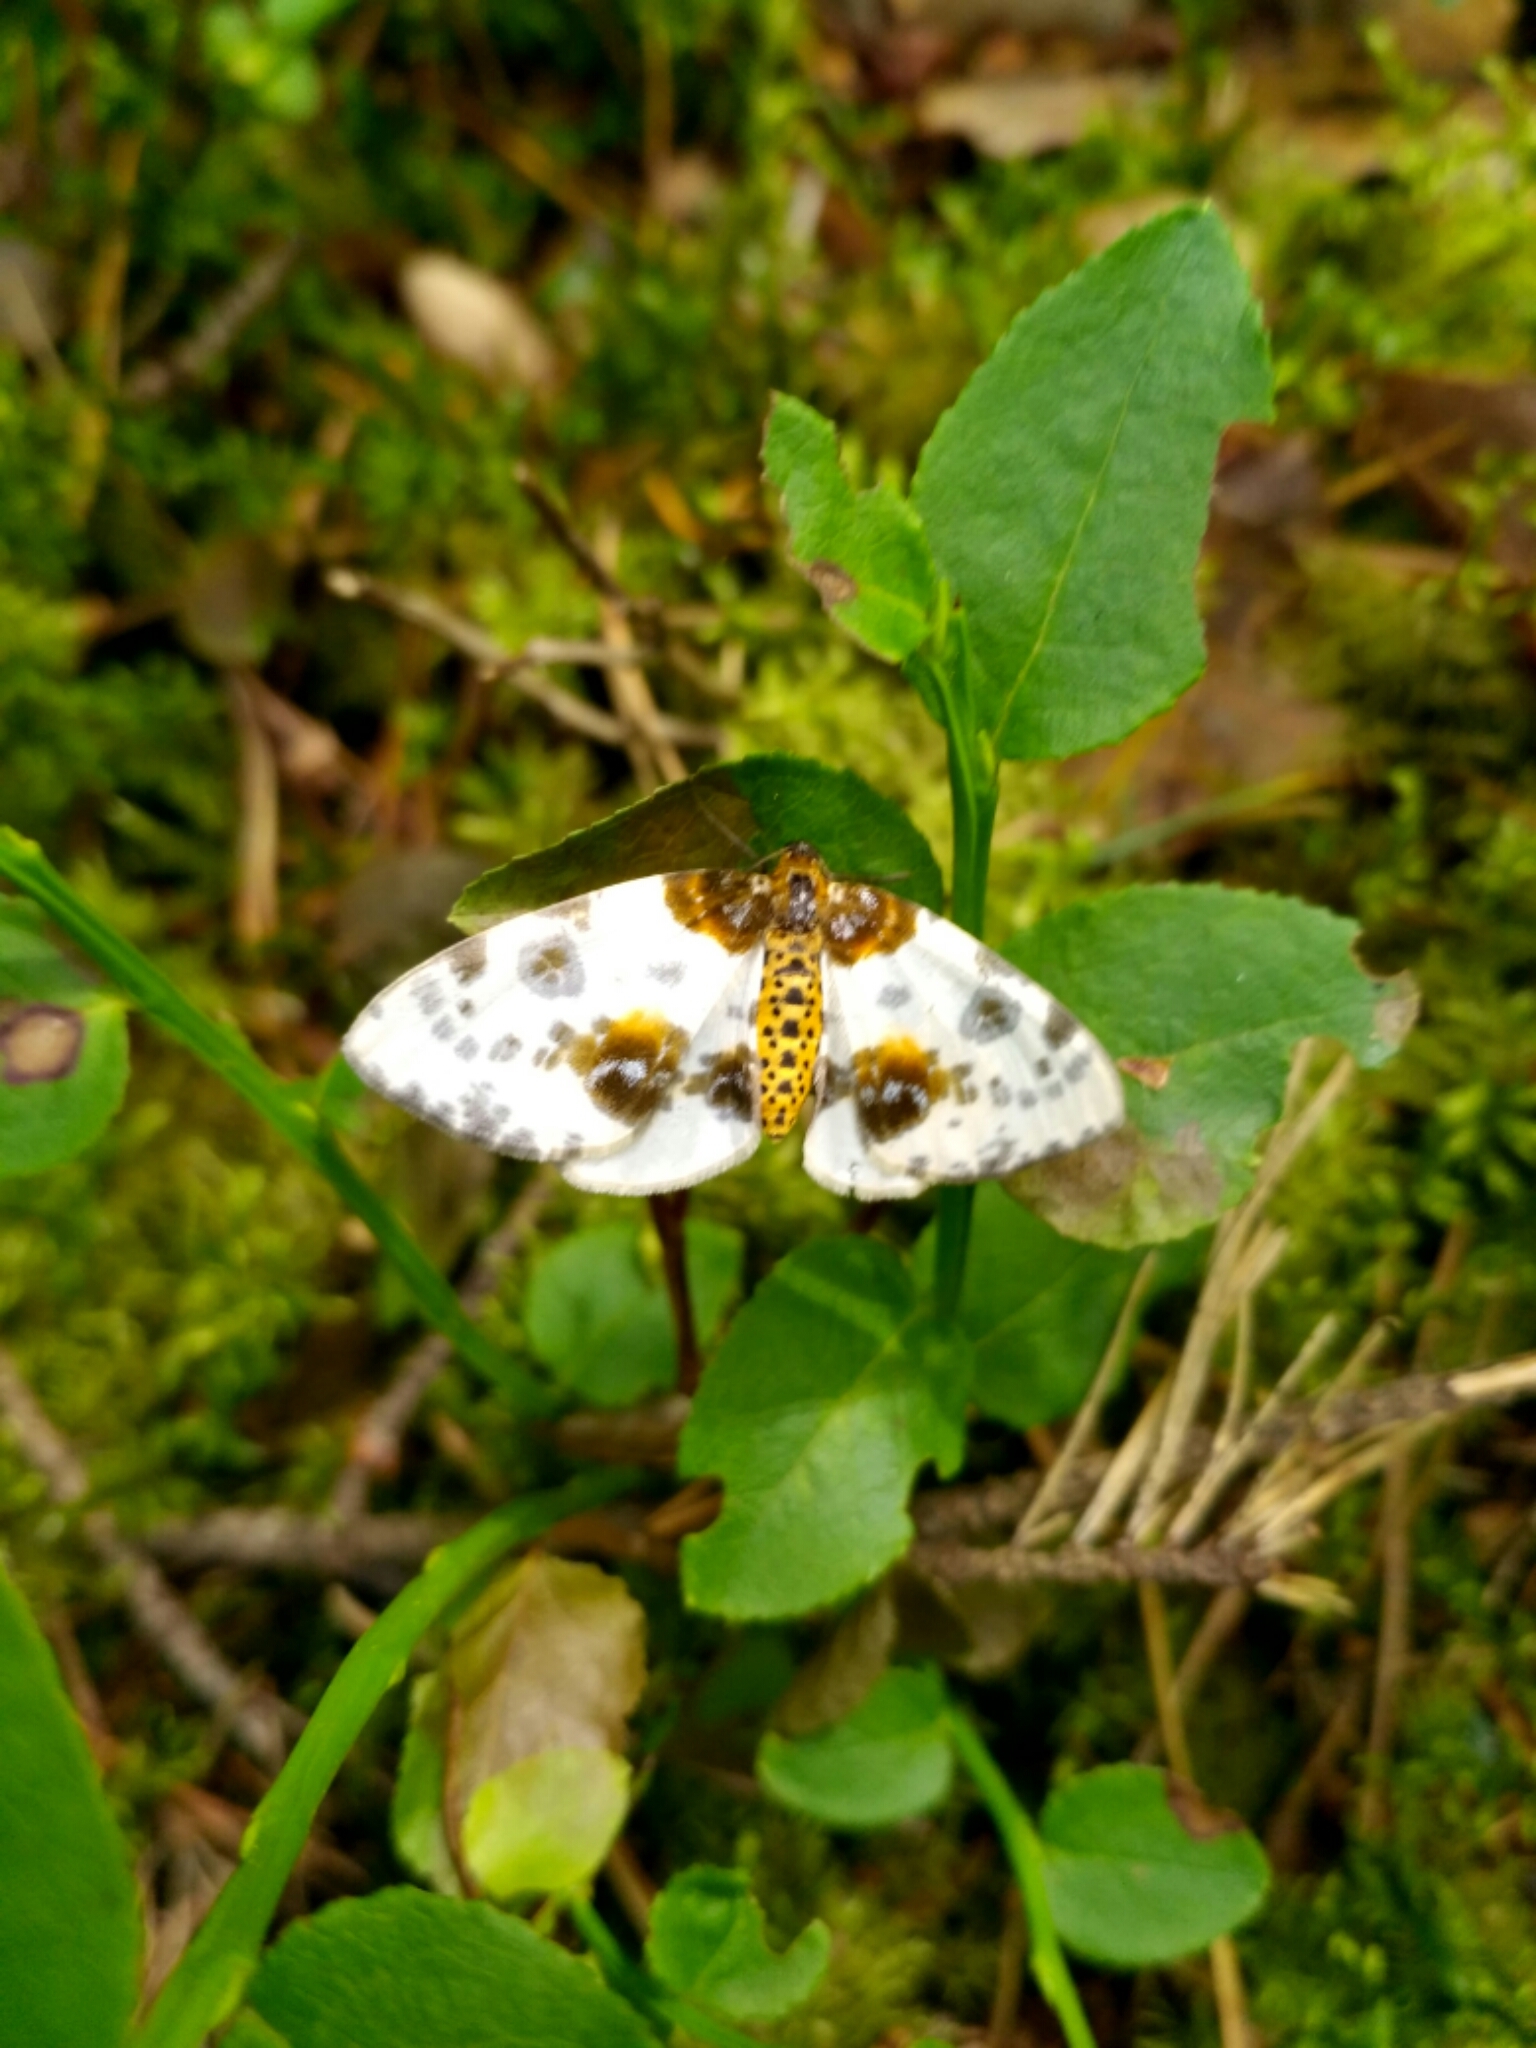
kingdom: Animalia
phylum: Arthropoda
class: Insecta
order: Lepidoptera
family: Geometridae
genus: Abraxas
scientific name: Abraxas sylvata
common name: Clouded magpie
